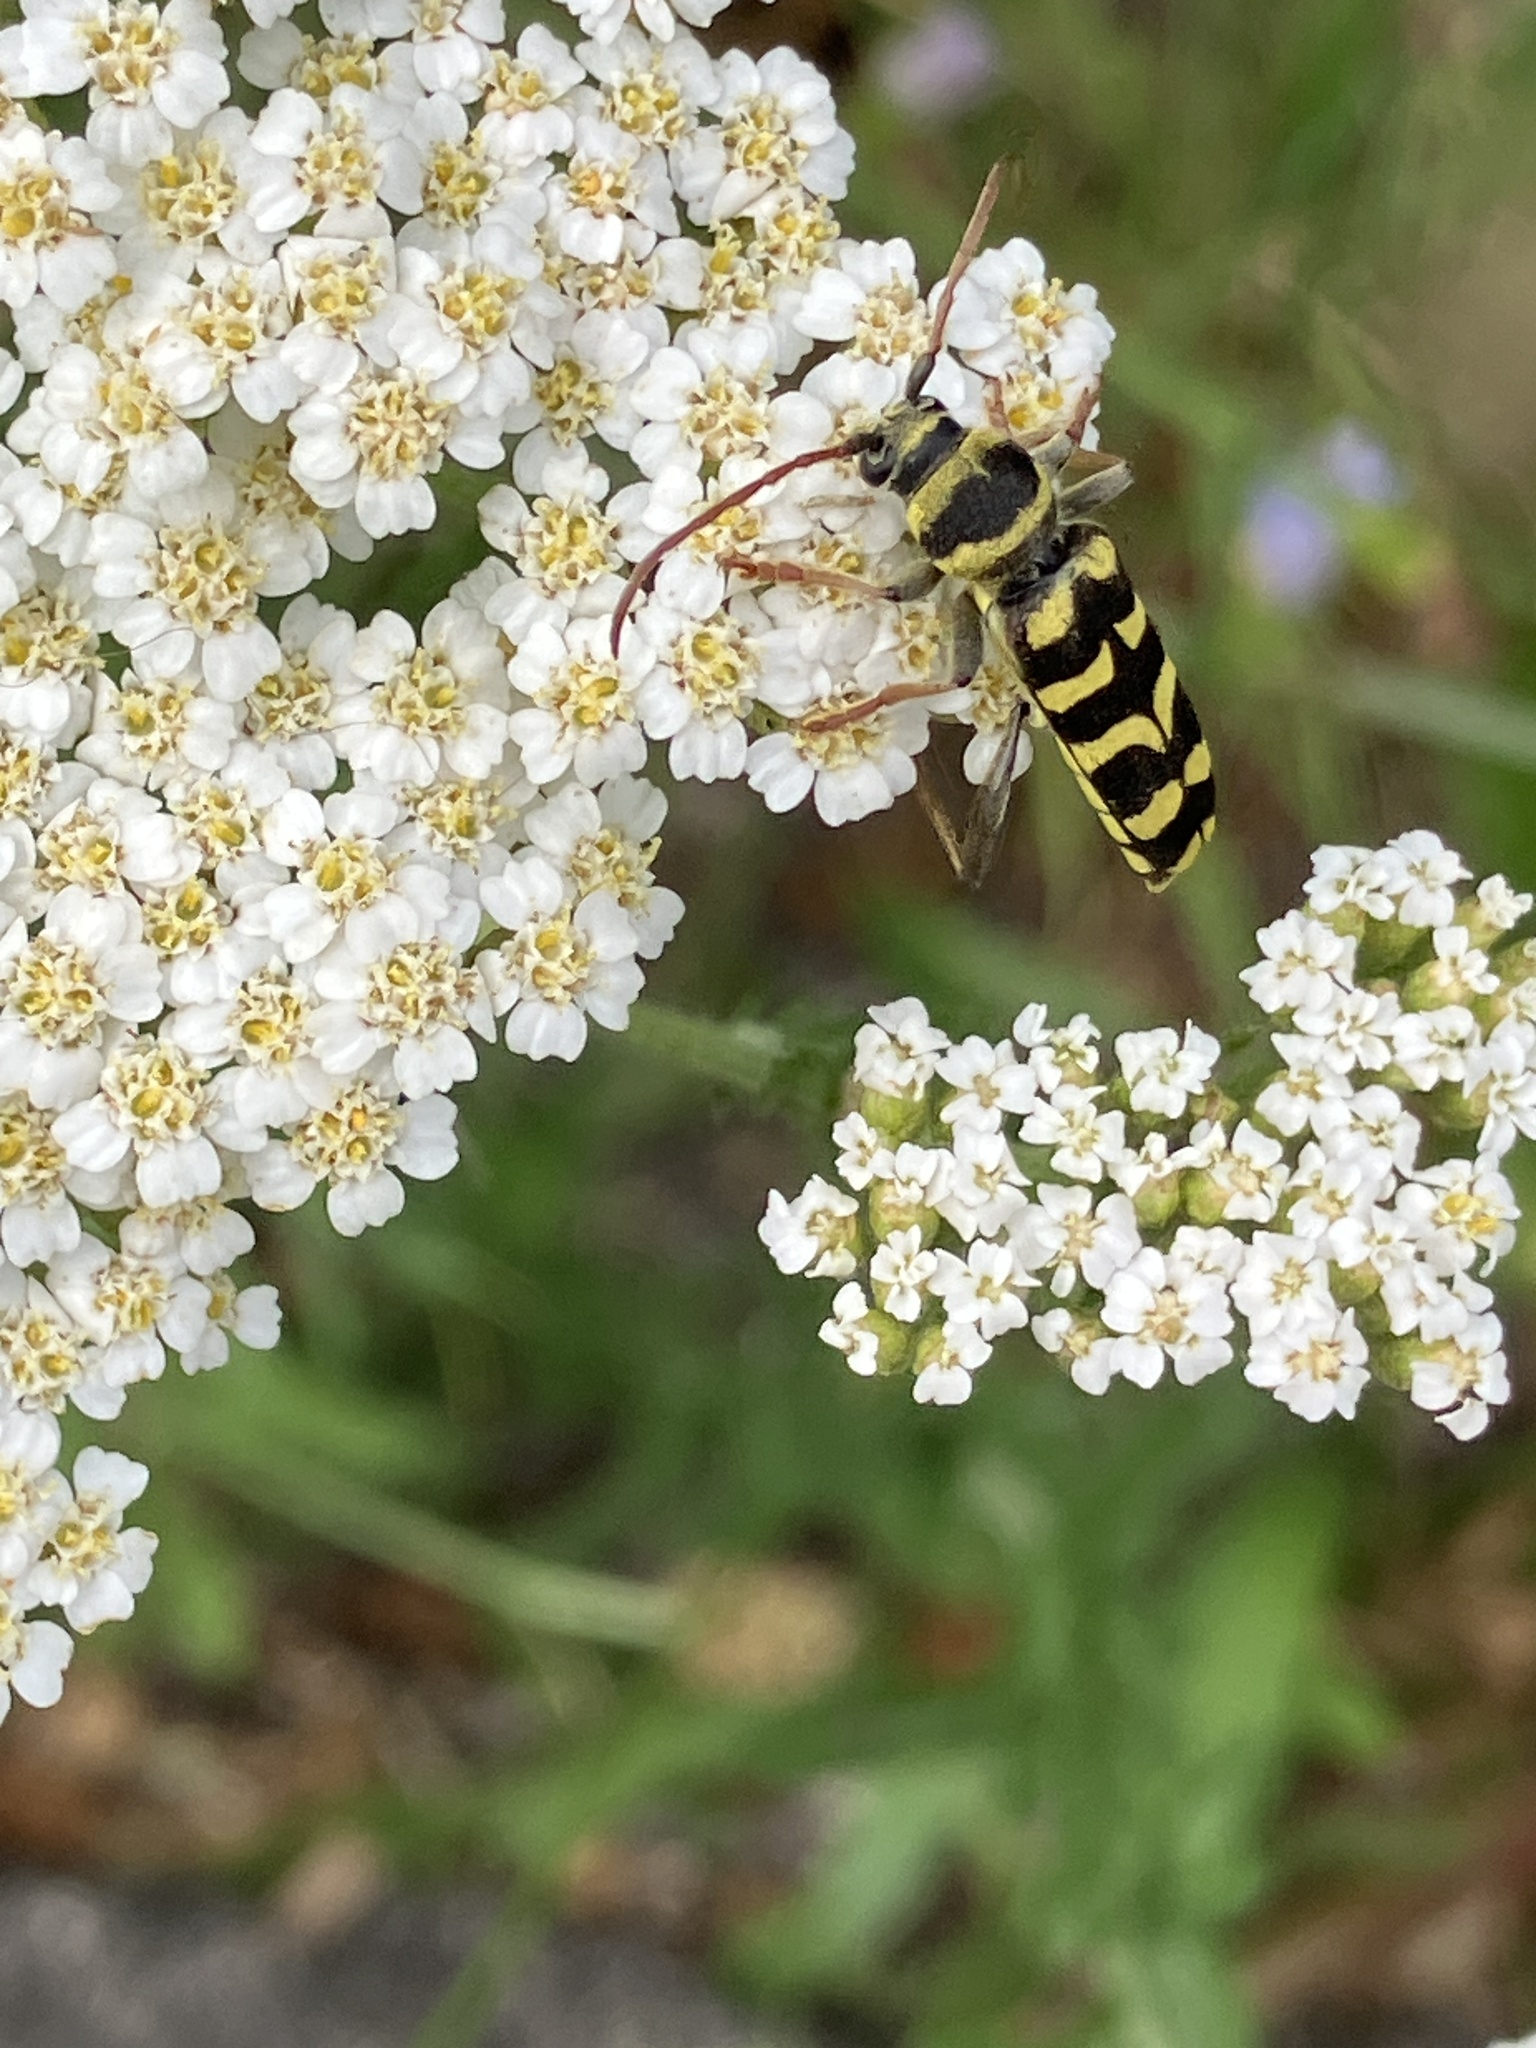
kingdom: Animalia
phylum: Arthropoda
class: Insecta
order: Coleoptera
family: Cerambycidae
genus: Plagionotus
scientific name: Plagionotus floralis
